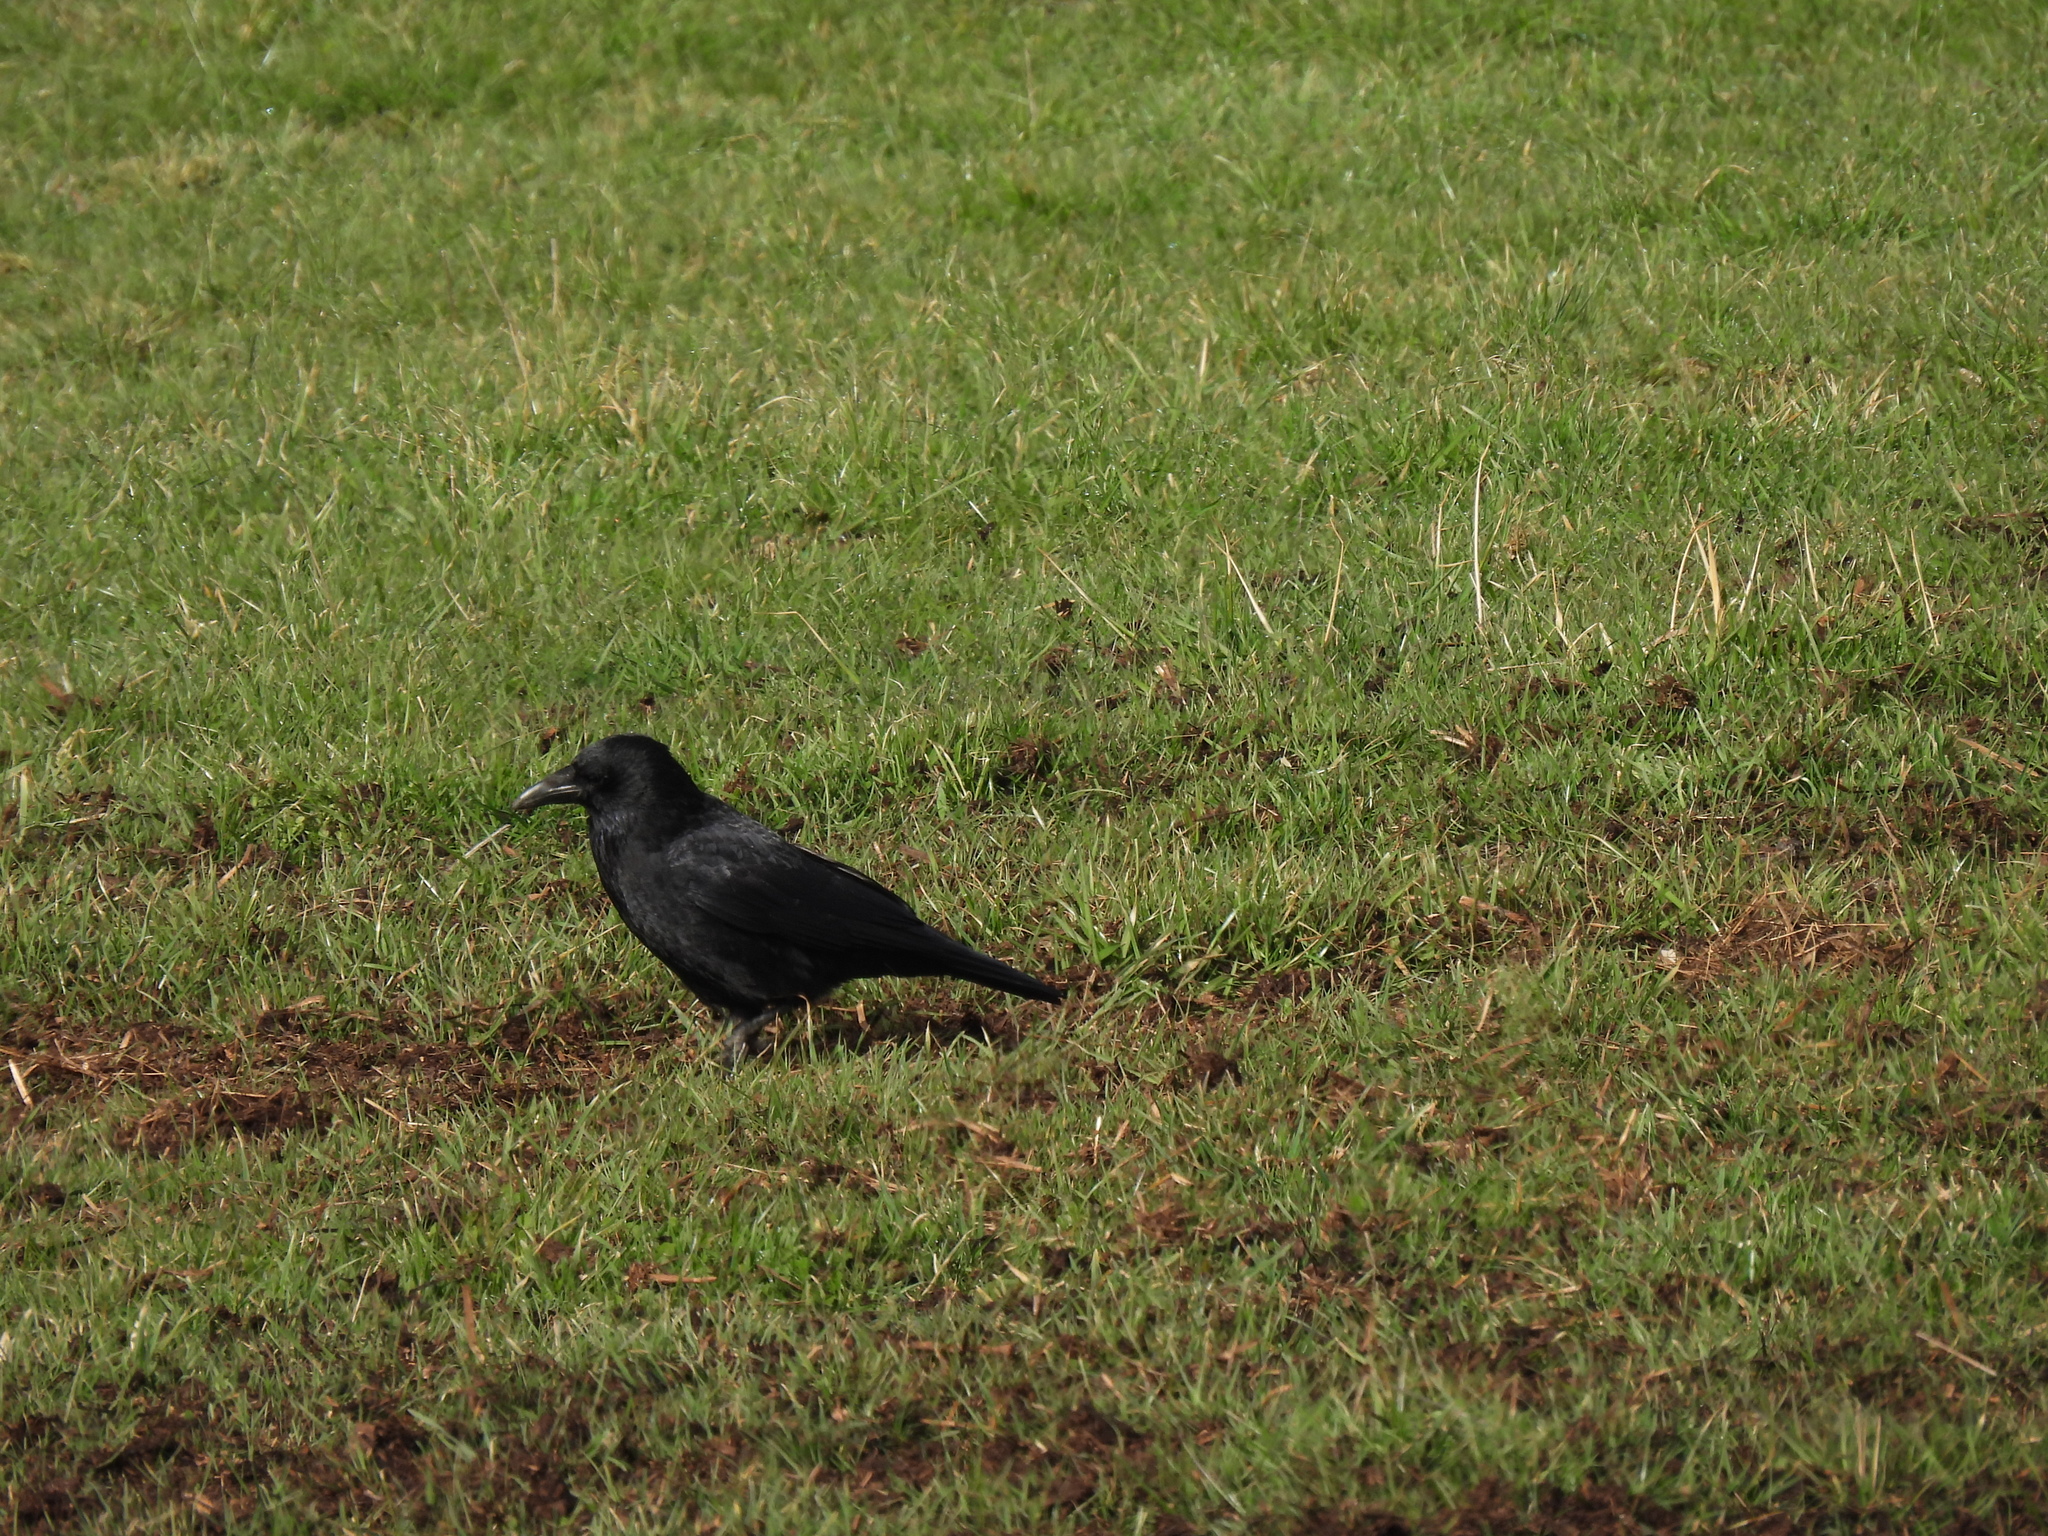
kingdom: Animalia
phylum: Chordata
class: Aves
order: Passeriformes
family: Corvidae
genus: Corvus
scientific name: Corvus corone
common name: Carrion crow
